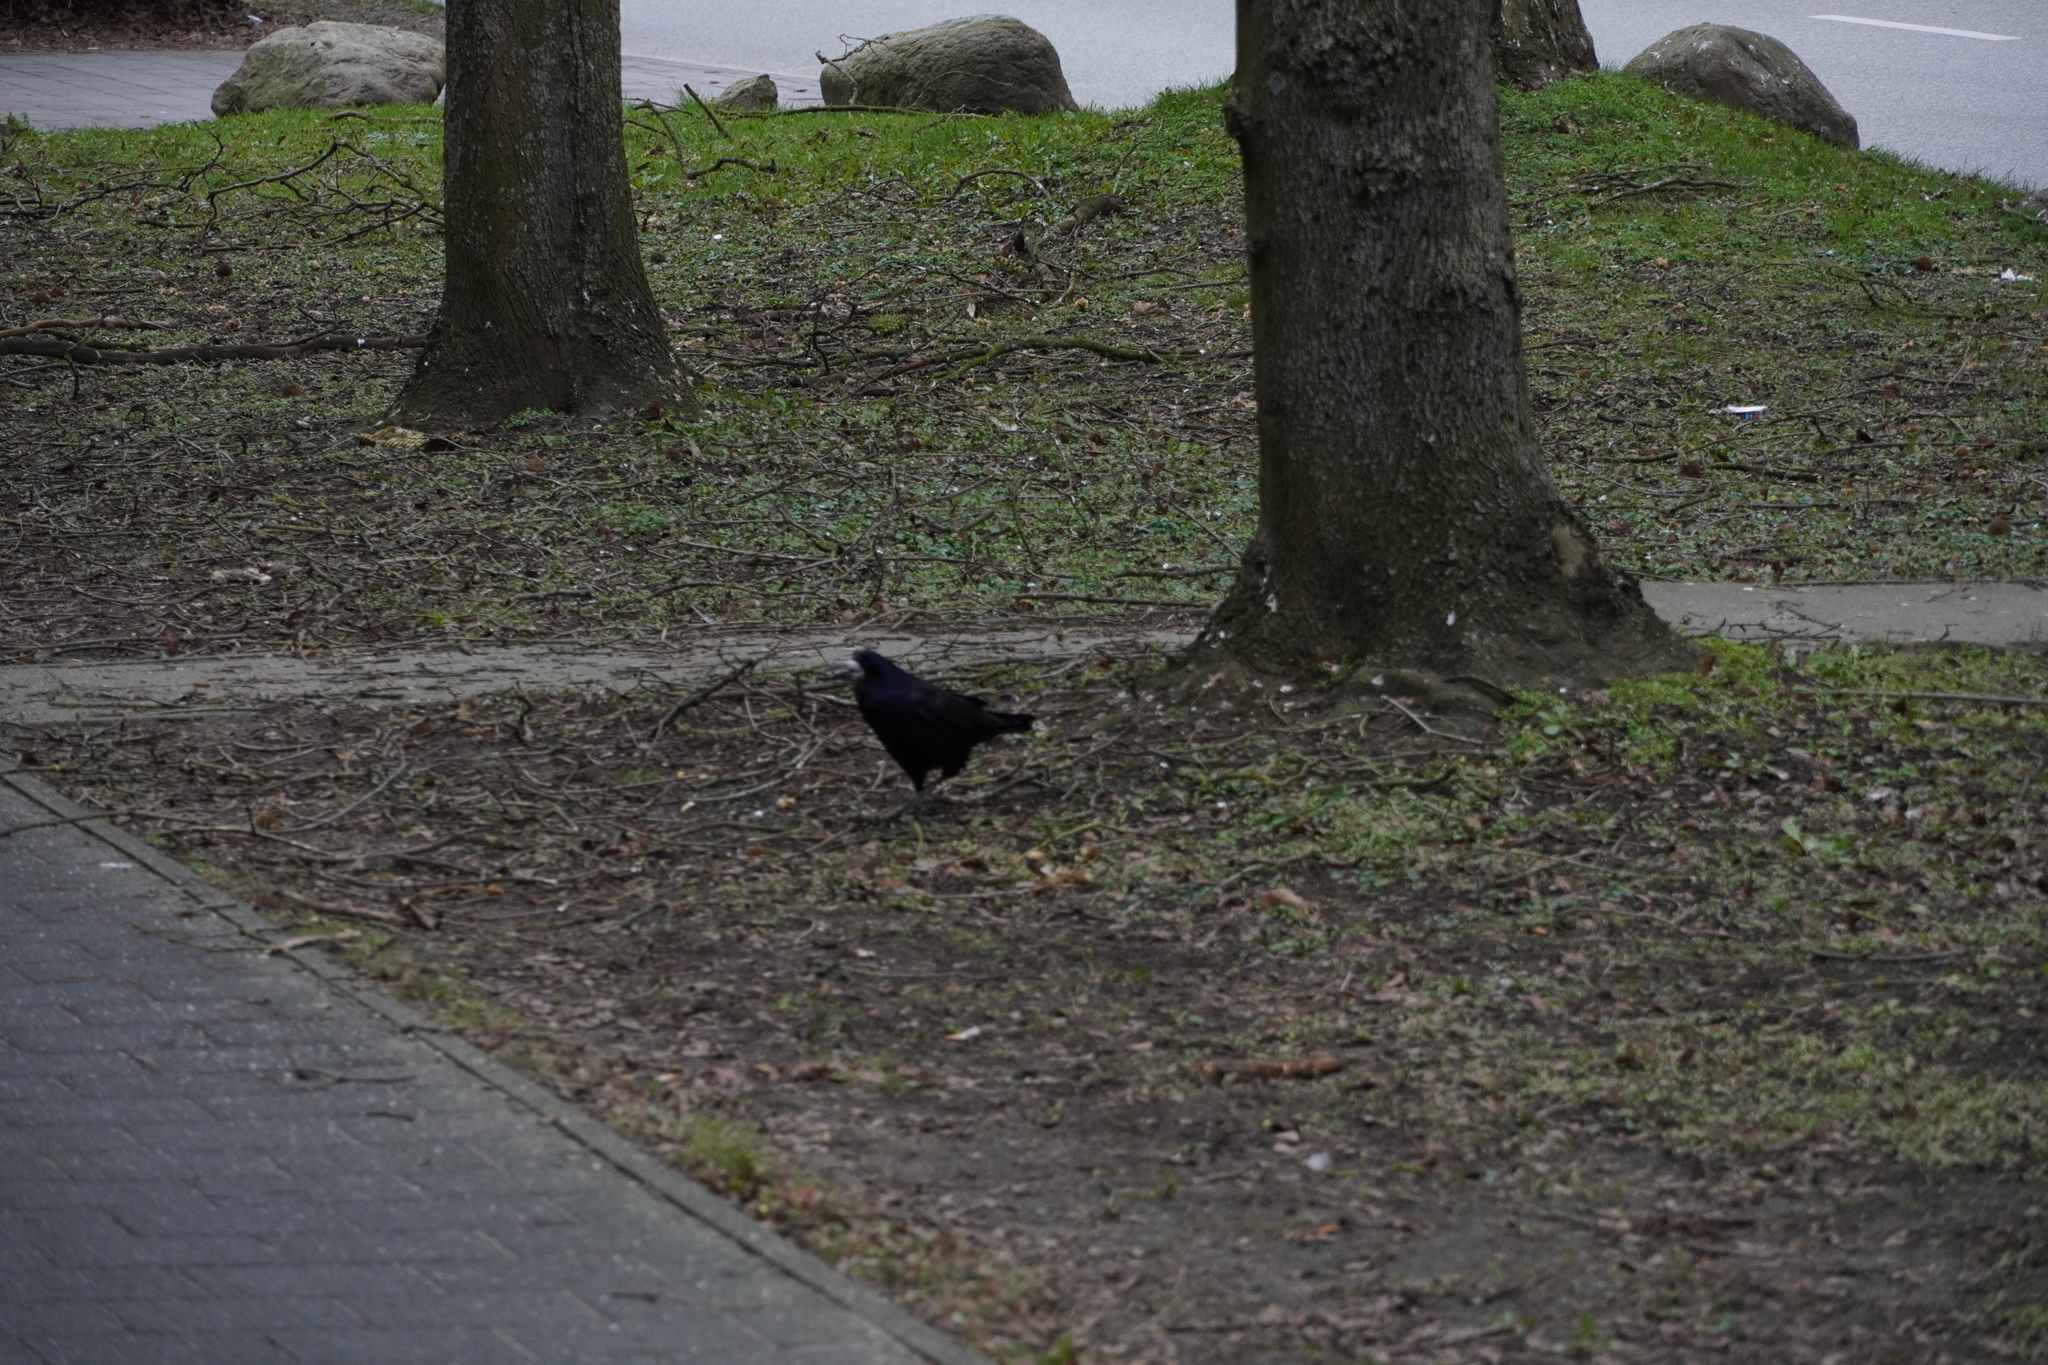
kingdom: Animalia
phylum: Chordata
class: Aves
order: Passeriformes
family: Corvidae
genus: Corvus
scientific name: Corvus frugilegus
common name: Rook
